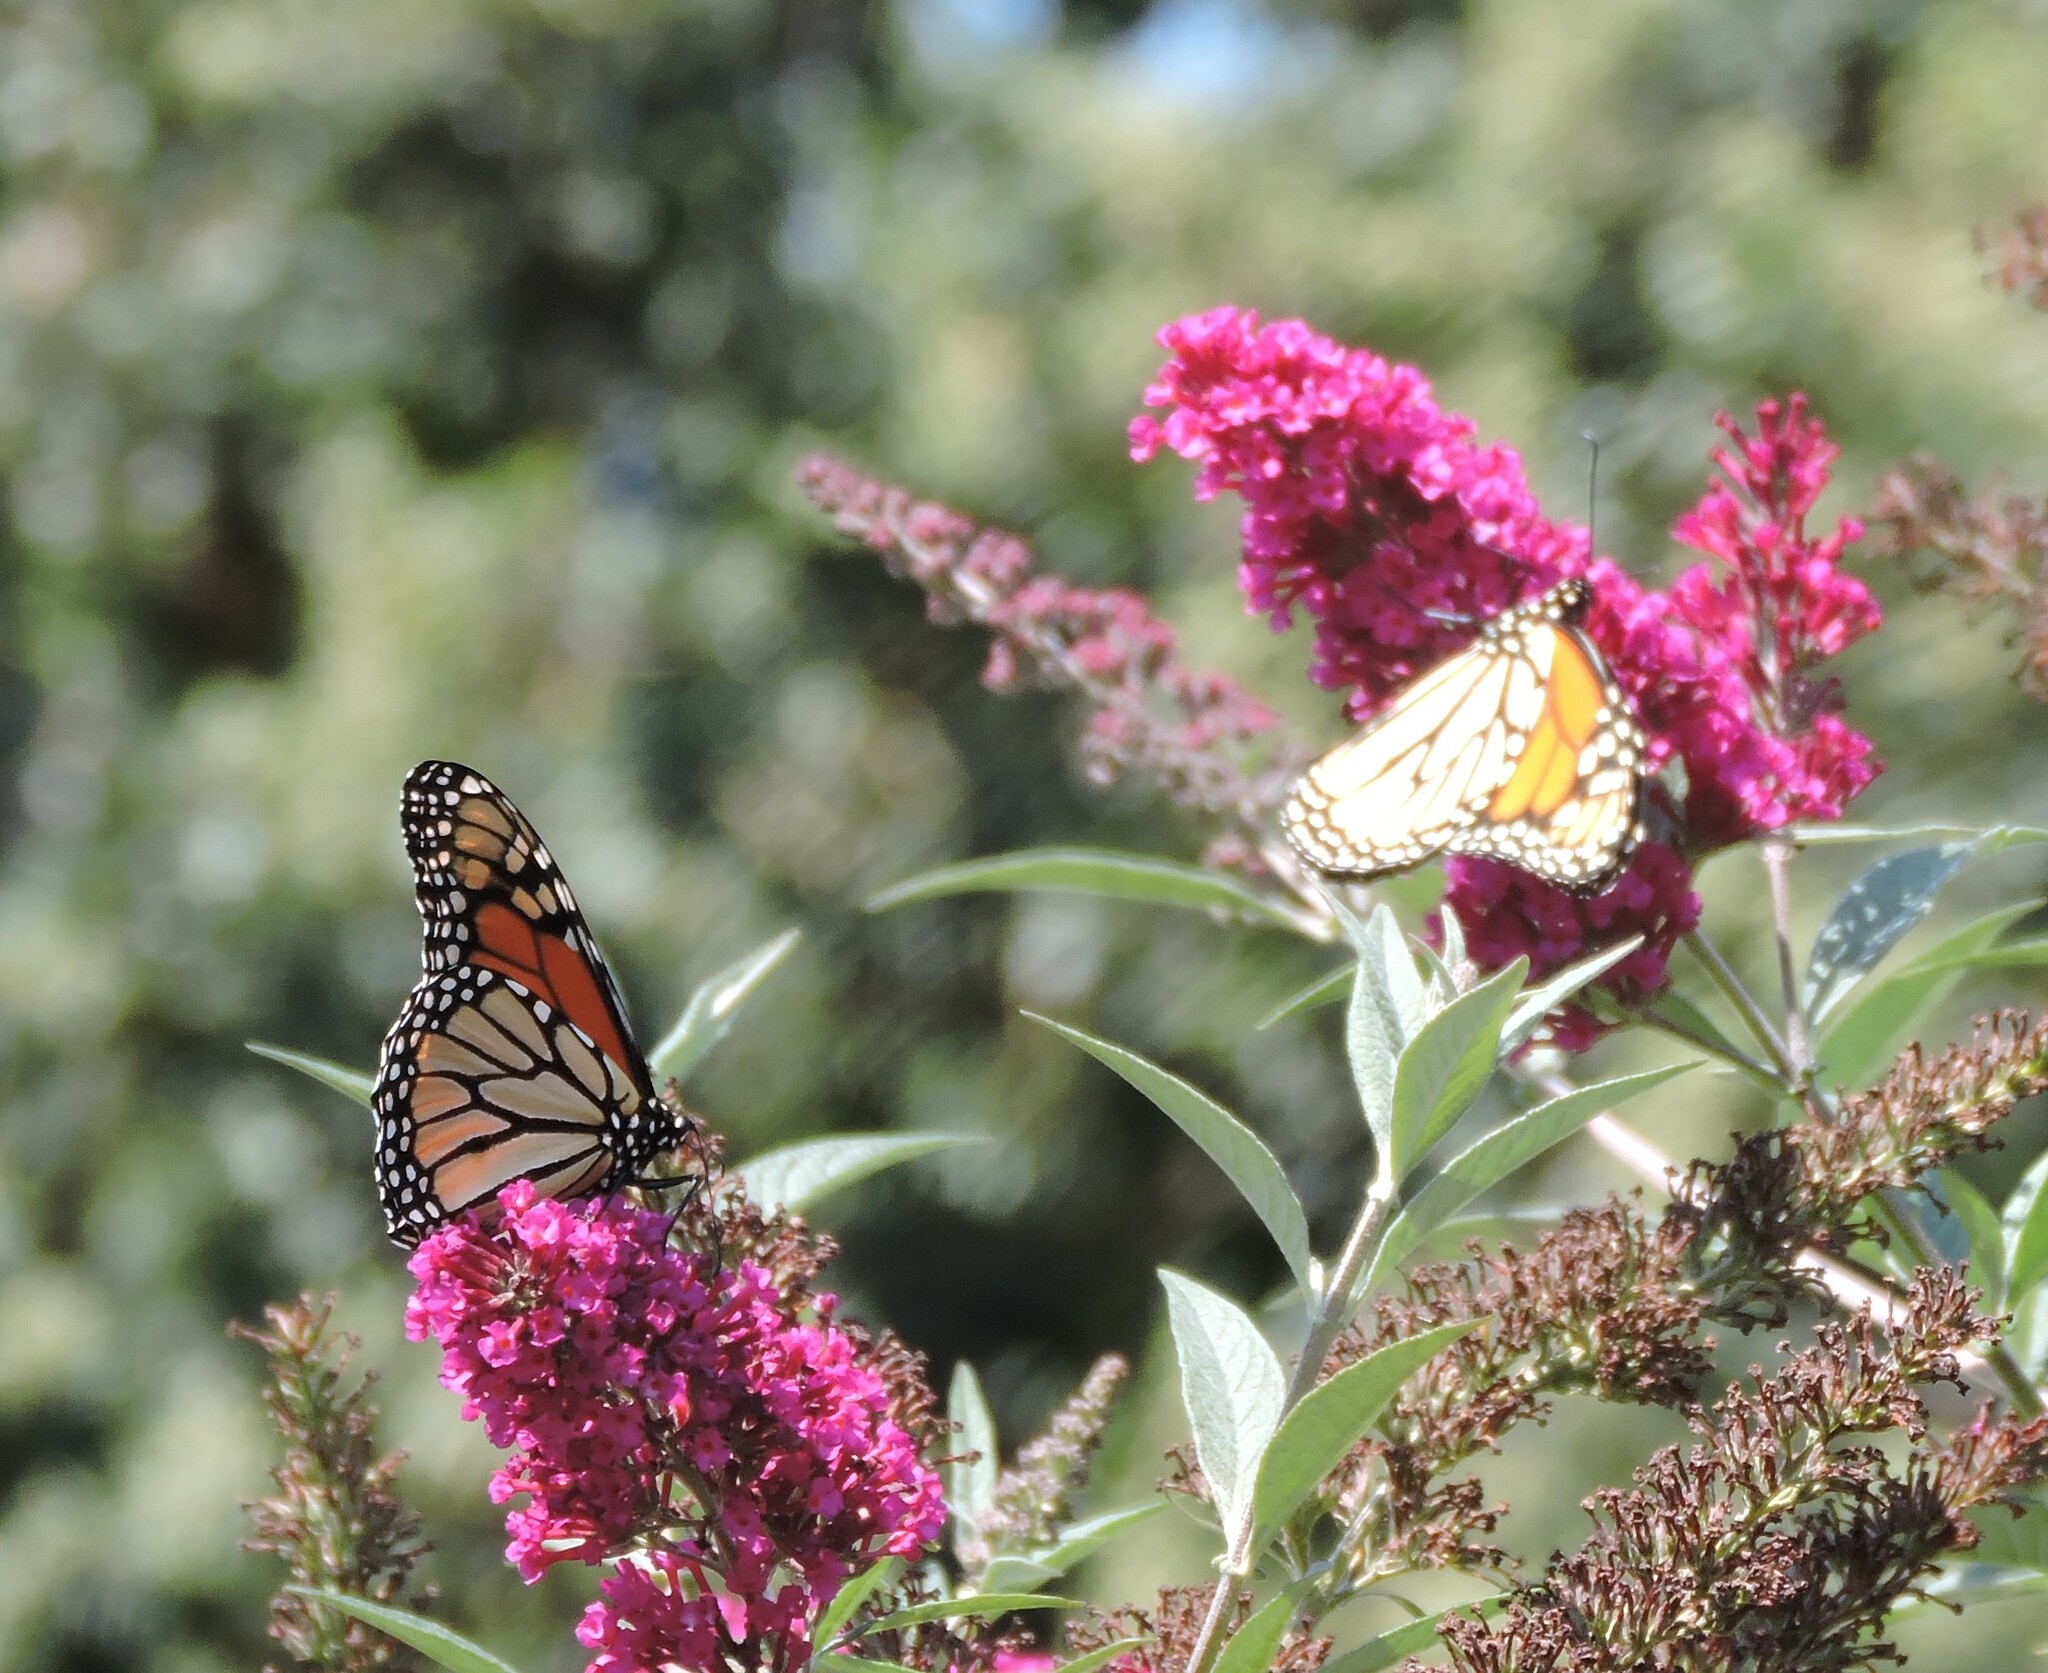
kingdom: Animalia
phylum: Arthropoda
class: Insecta
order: Lepidoptera
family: Nymphalidae
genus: Danaus
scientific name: Danaus plexippus
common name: Monarch
